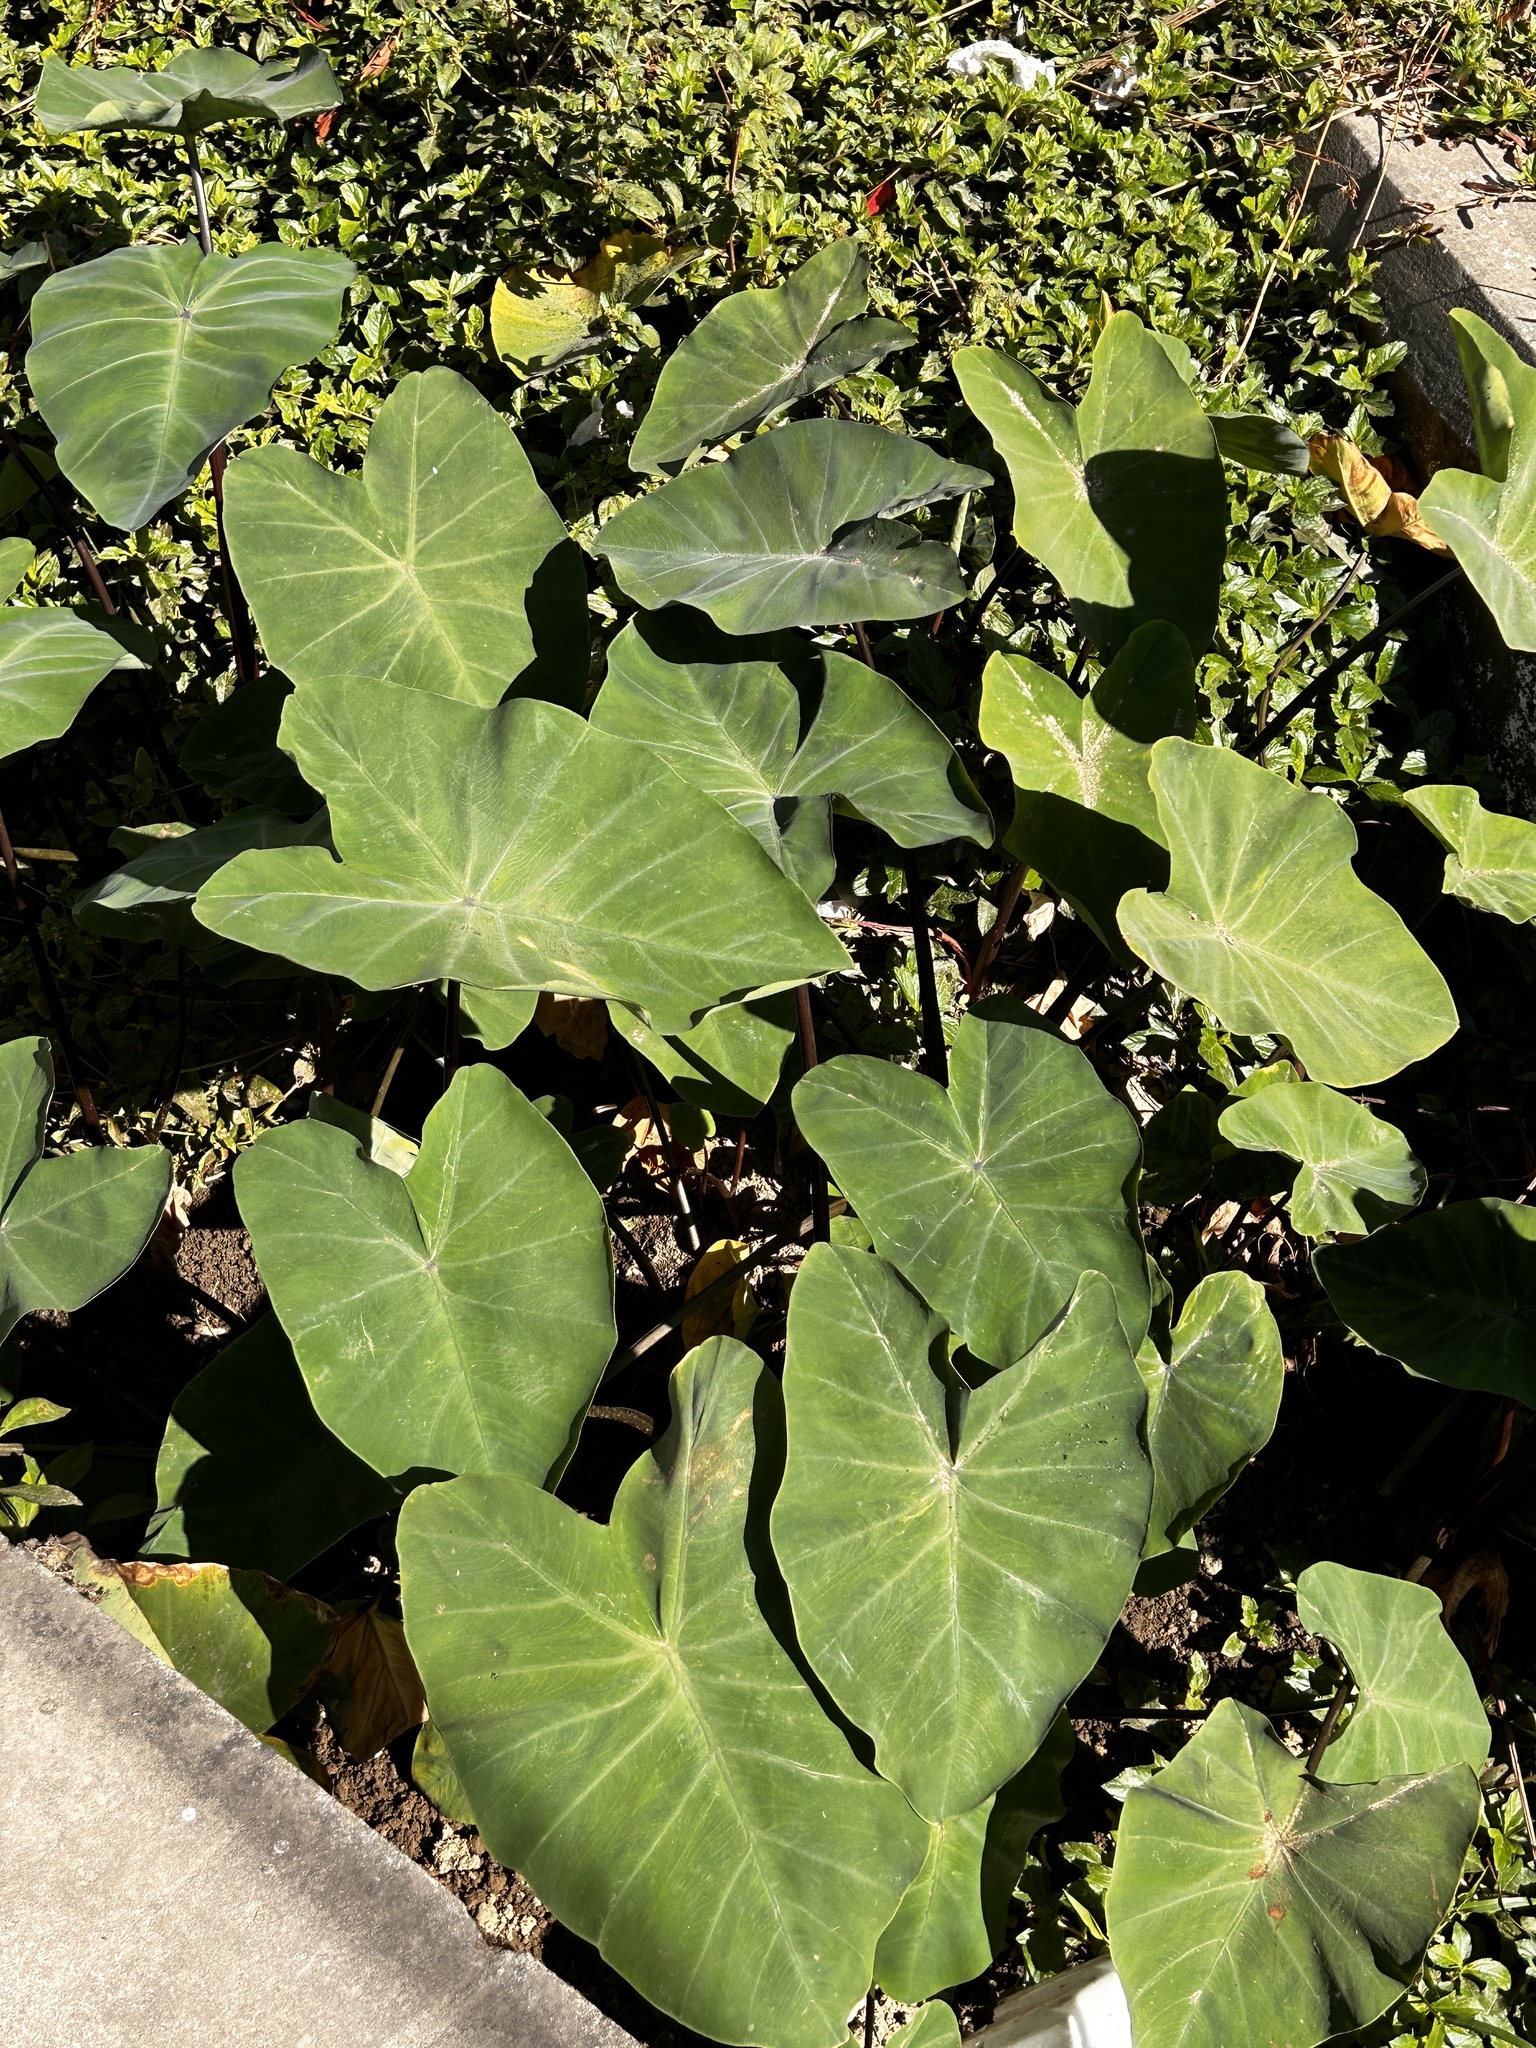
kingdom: Plantae
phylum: Tracheophyta
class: Liliopsida
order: Alismatales
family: Araceae
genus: Colocasia
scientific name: Colocasia esculenta
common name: Taro
